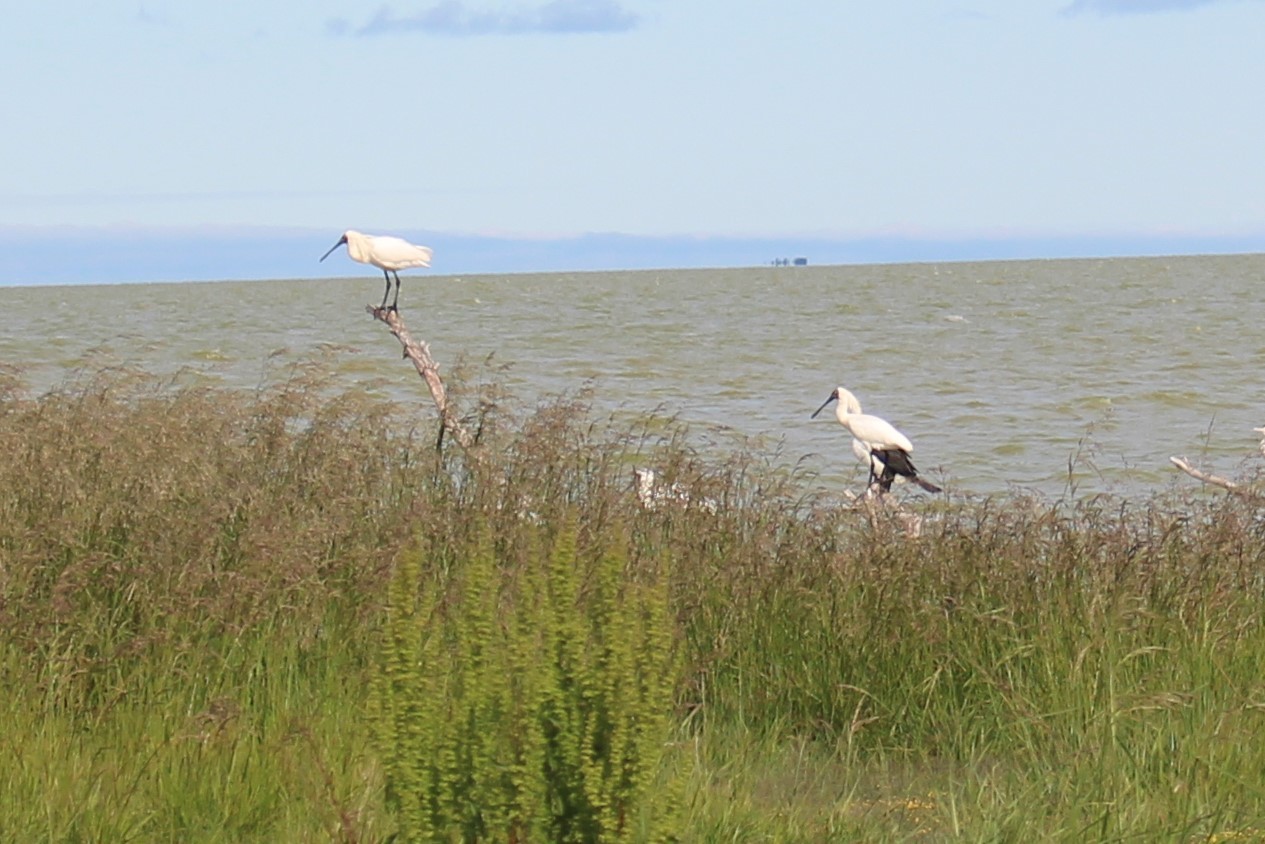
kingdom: Animalia
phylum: Chordata
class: Aves
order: Pelecaniformes
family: Threskiornithidae
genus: Platalea
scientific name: Platalea regia
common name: Royal spoonbill
